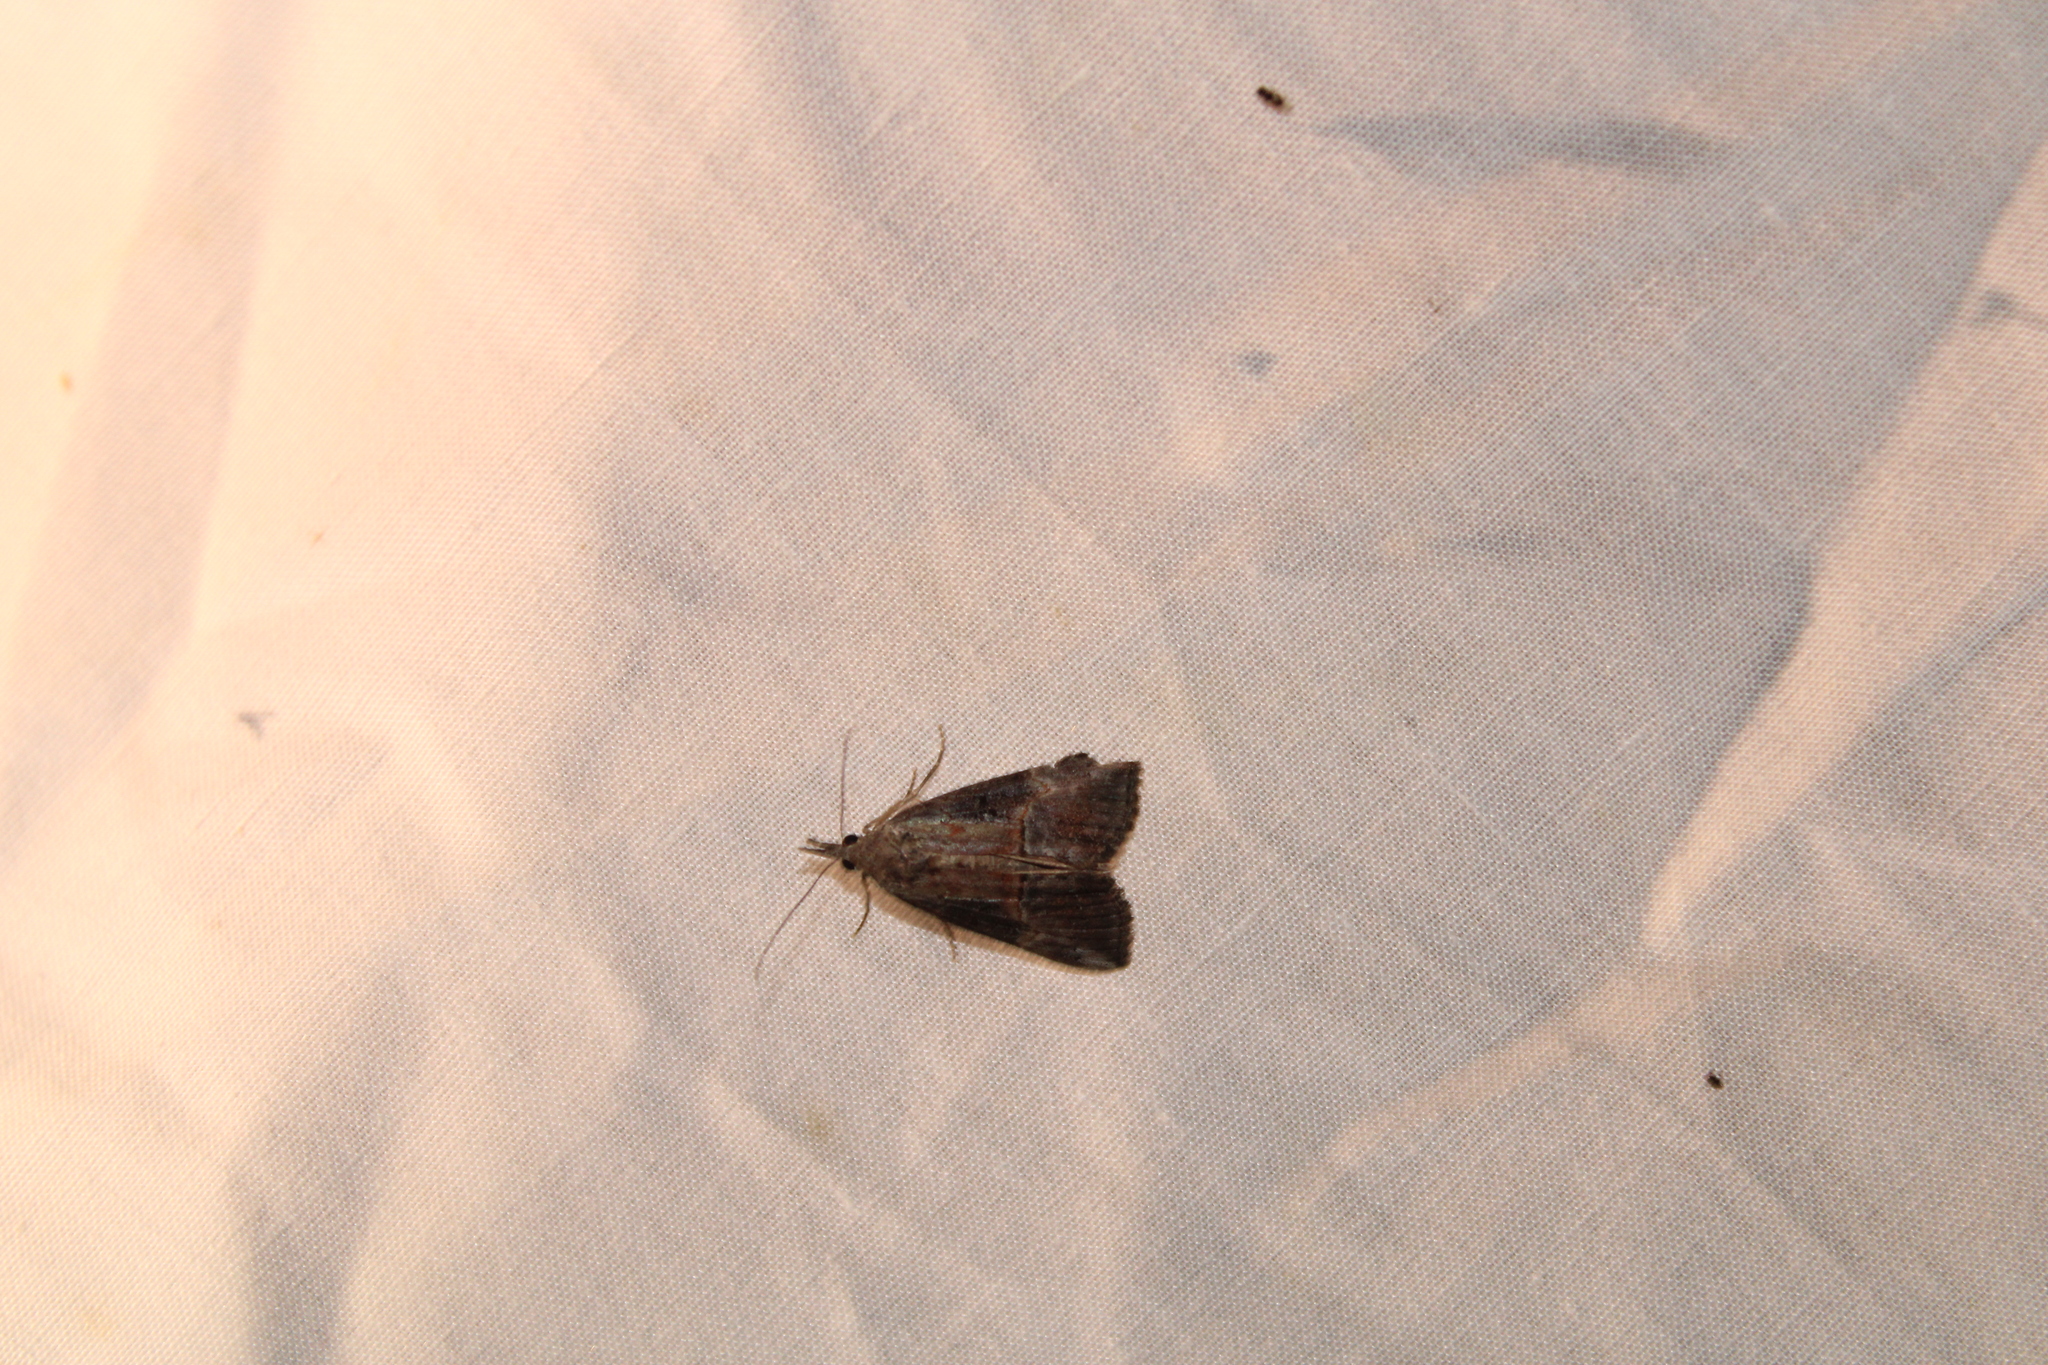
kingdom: Animalia
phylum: Arthropoda
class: Insecta
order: Lepidoptera
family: Erebidae
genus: Hypena
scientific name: Hypena scabra
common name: Green cloverworm
